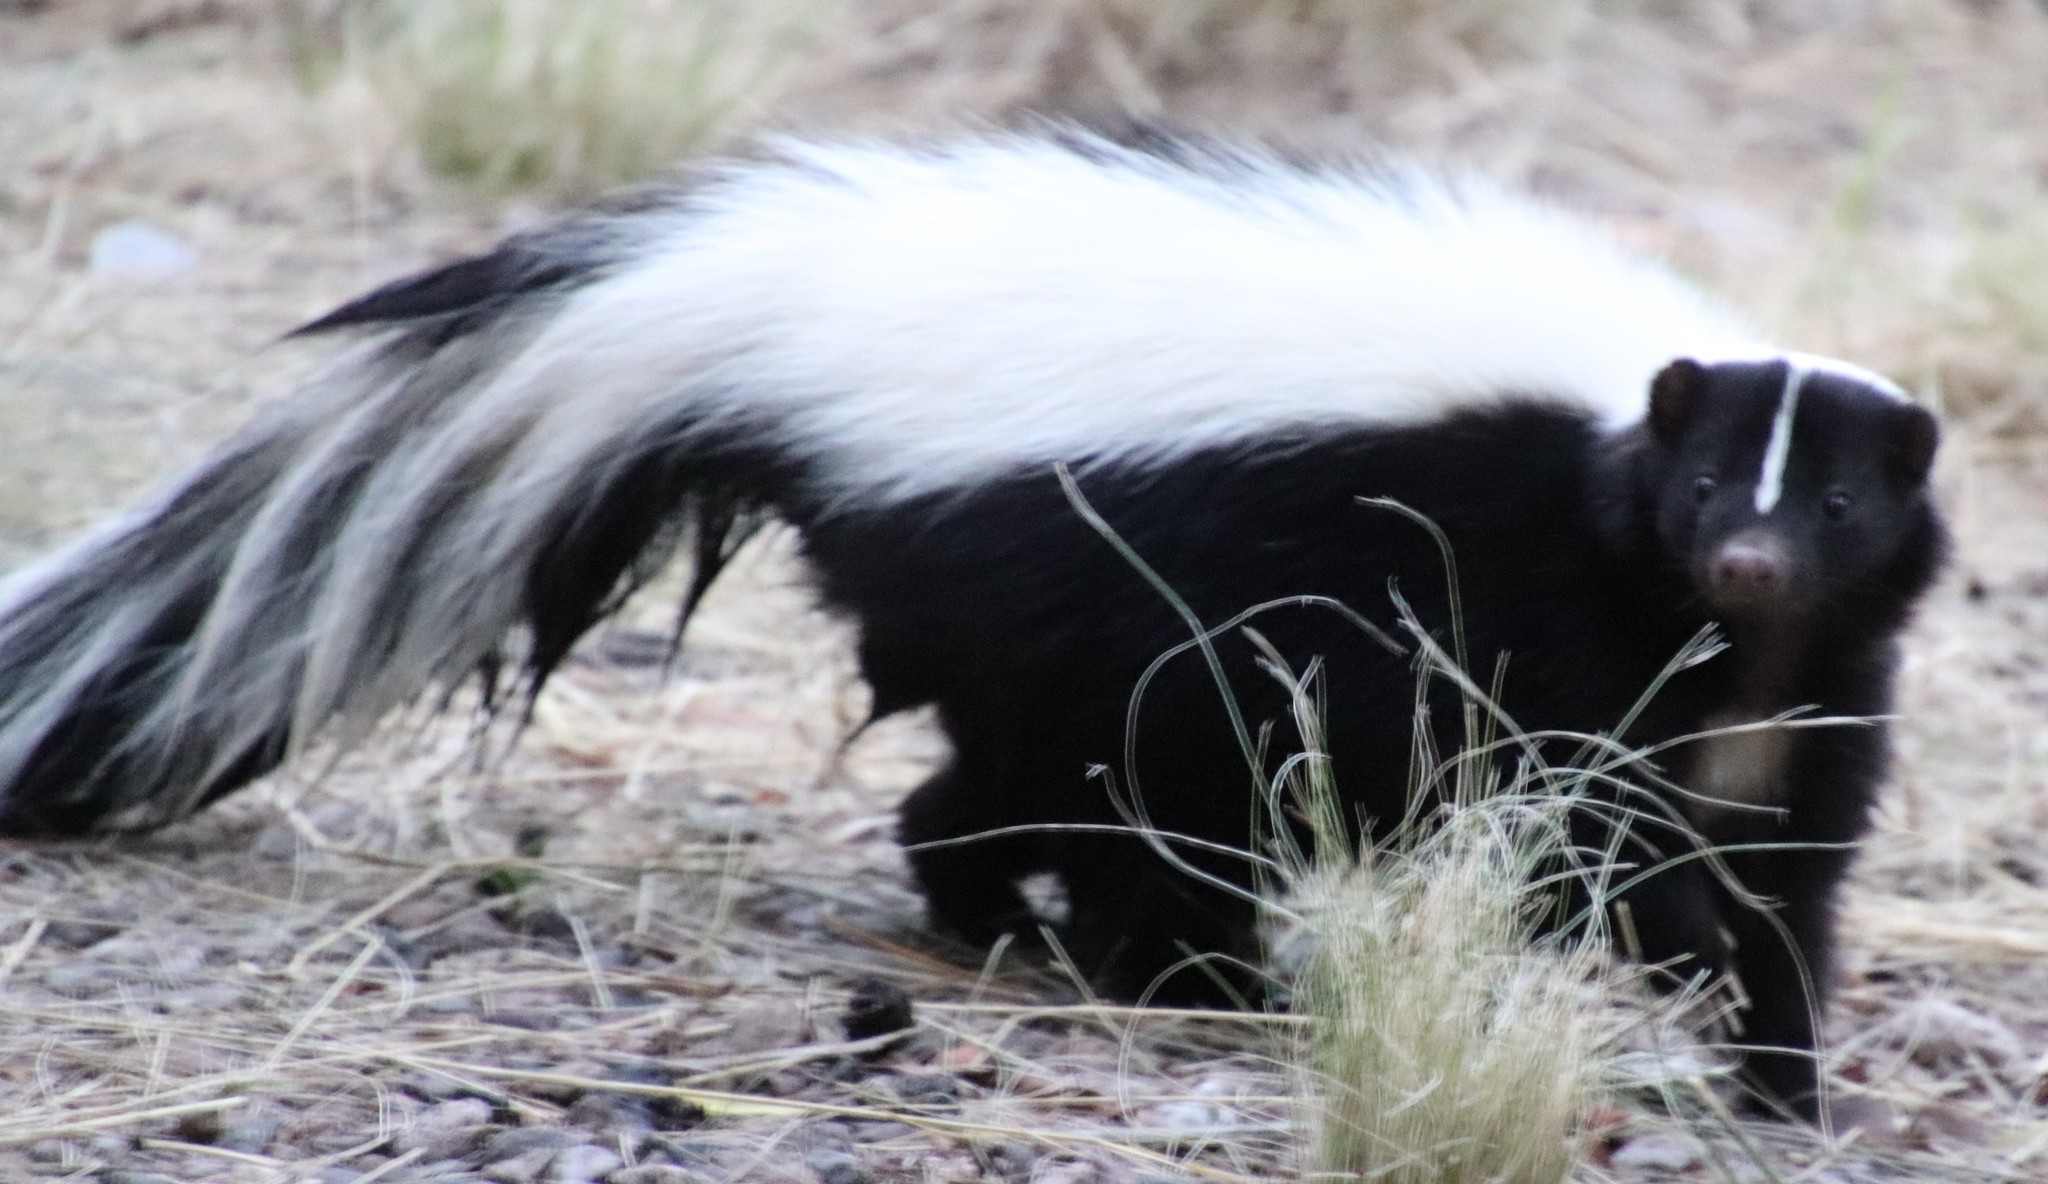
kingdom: Animalia
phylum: Chordata
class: Mammalia
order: Carnivora
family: Mephitidae
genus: Mephitis
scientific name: Mephitis mephitis
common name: Striped skunk
